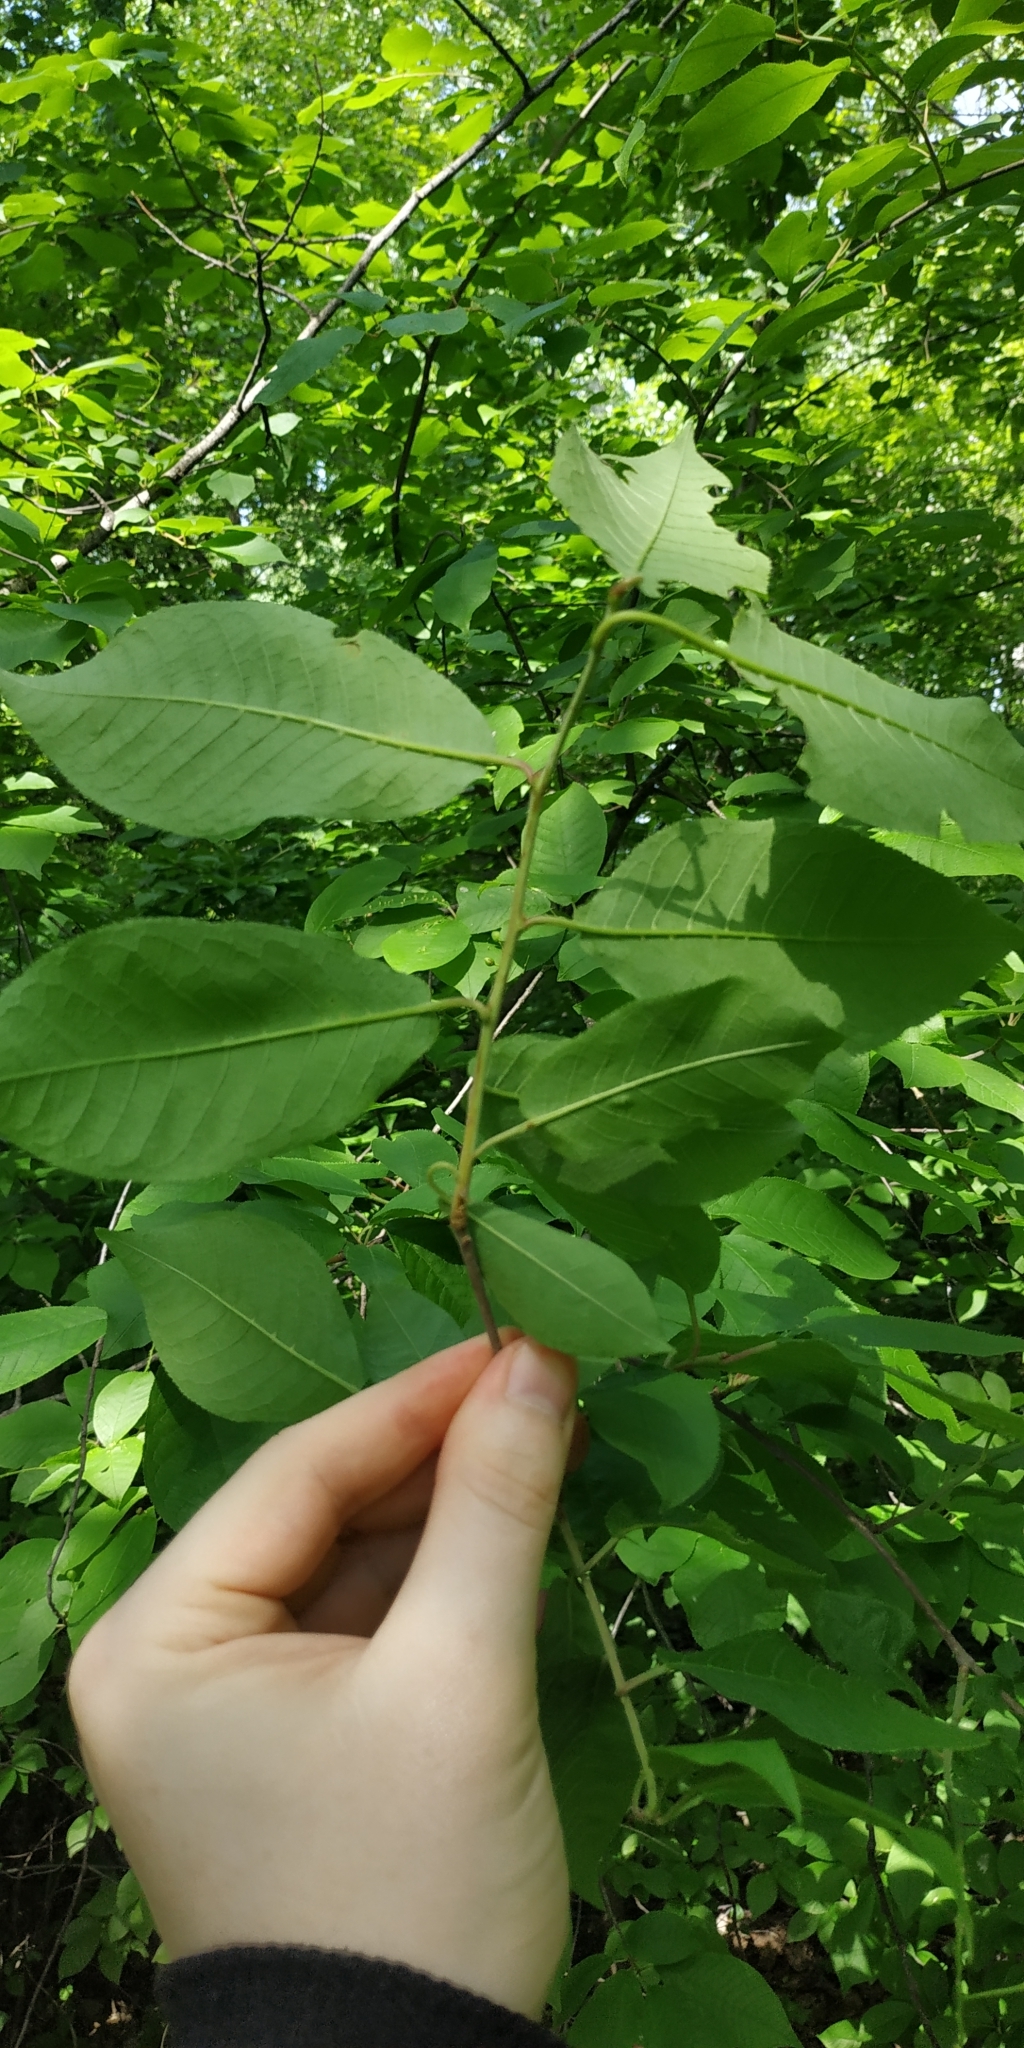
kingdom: Plantae
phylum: Tracheophyta
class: Magnoliopsida
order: Rosales
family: Rosaceae
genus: Prunus
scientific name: Prunus padus
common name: Bird cherry
